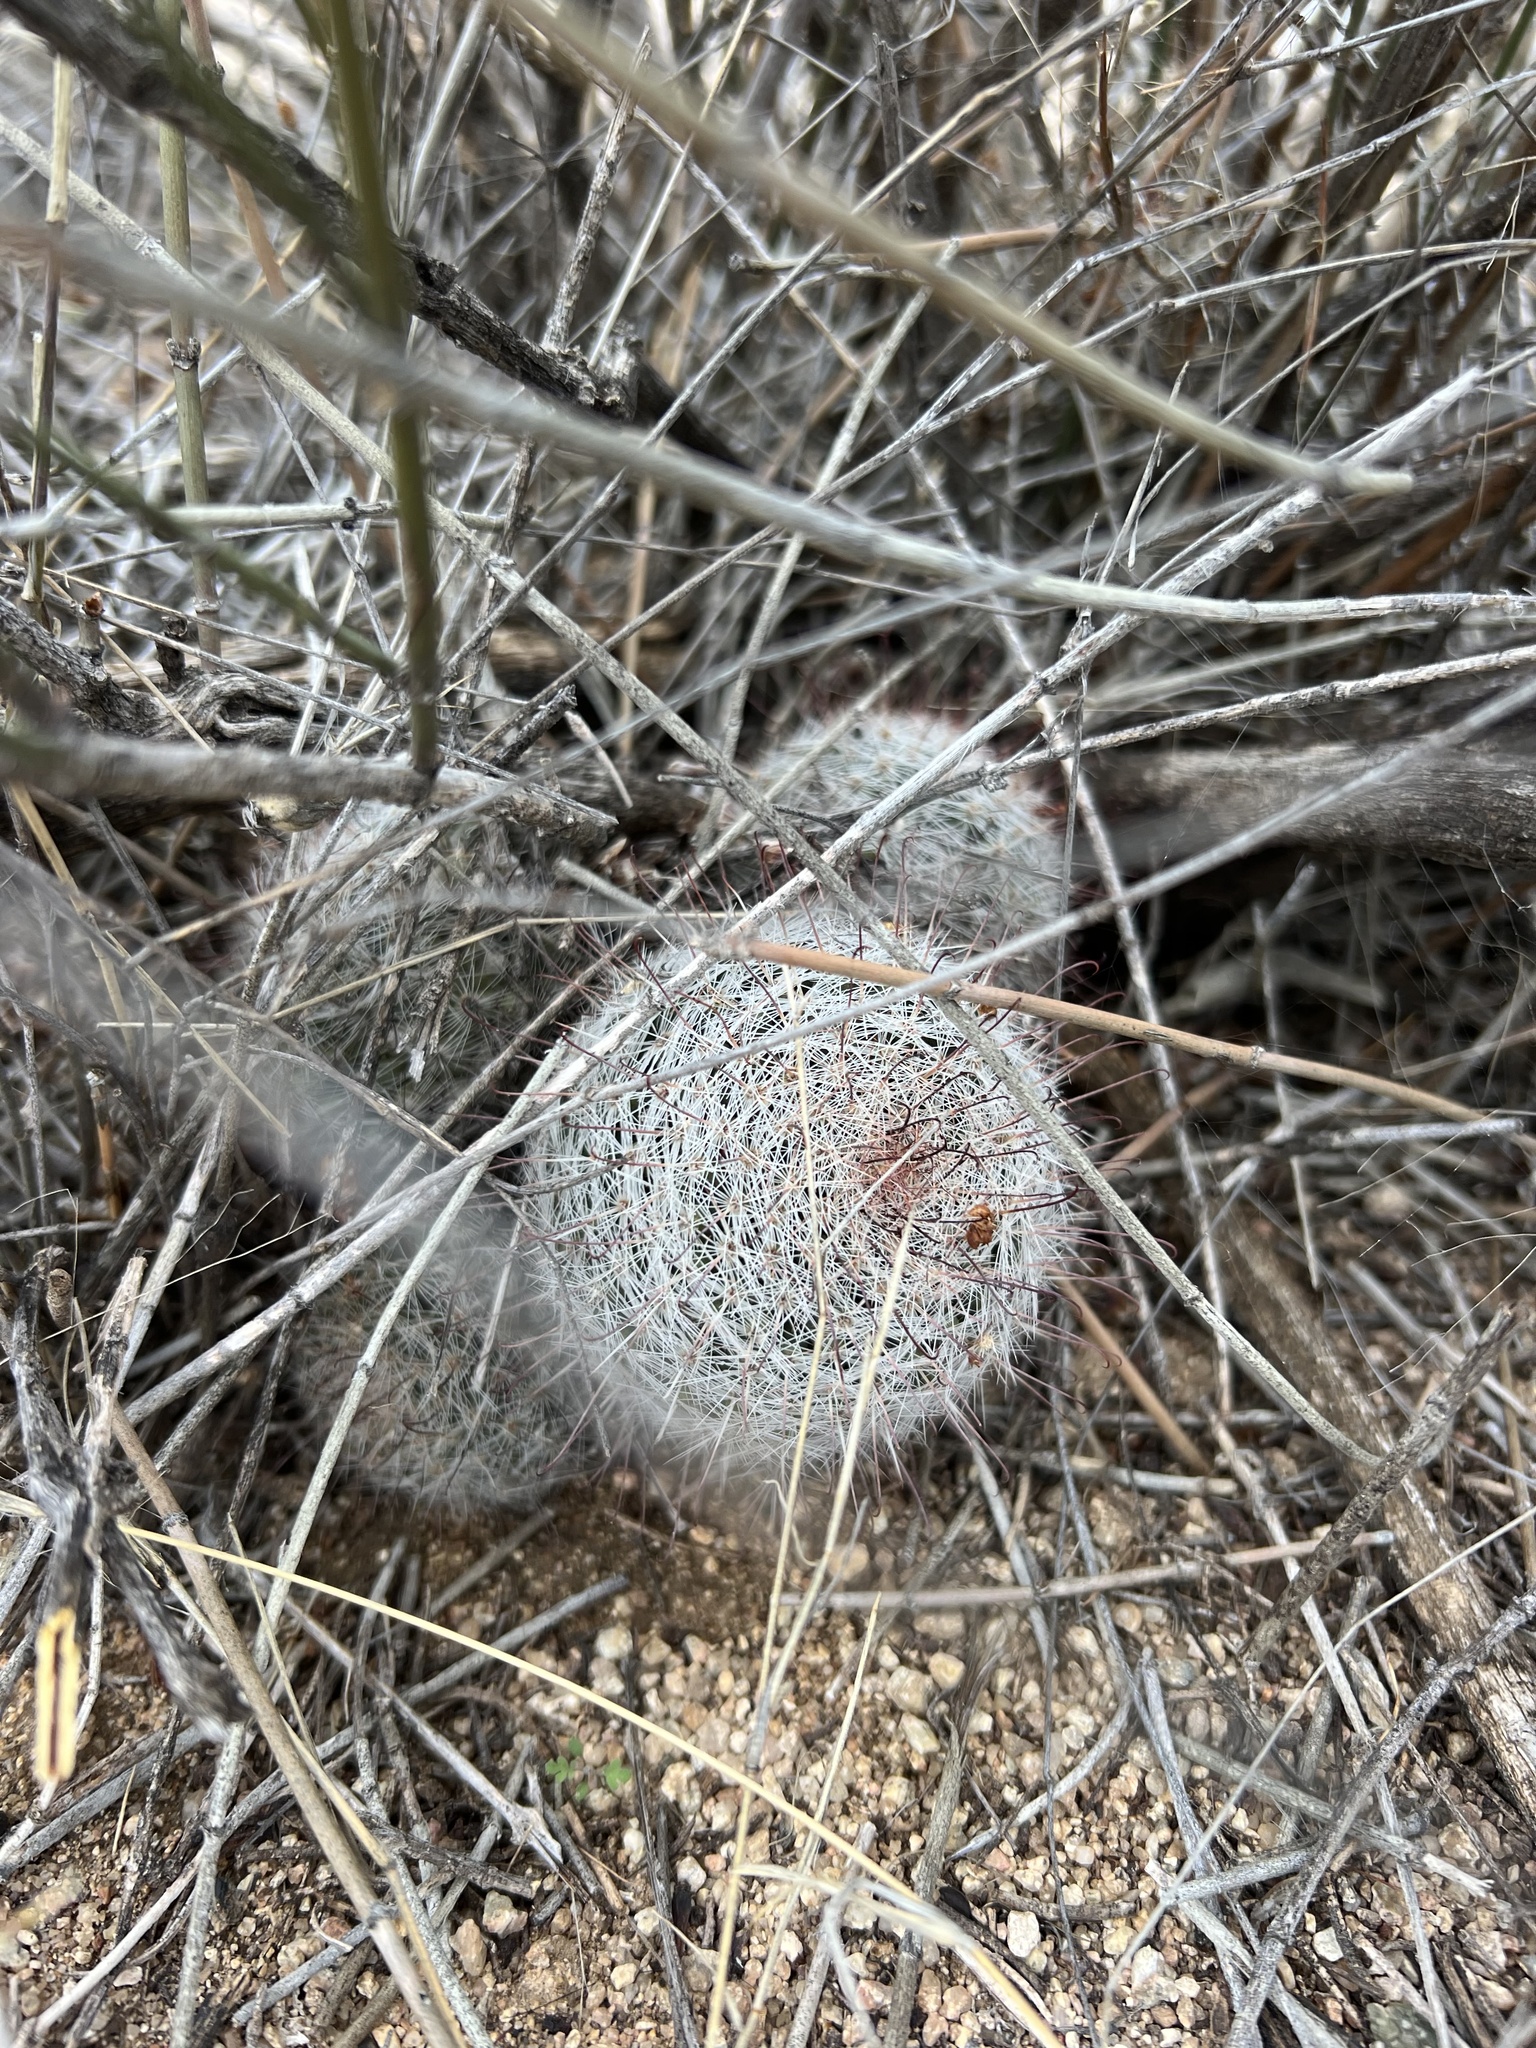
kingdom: Plantae
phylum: Tracheophyta
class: Magnoliopsida
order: Caryophyllales
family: Cactaceae
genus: Cochemiea
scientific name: Cochemiea grahamii
